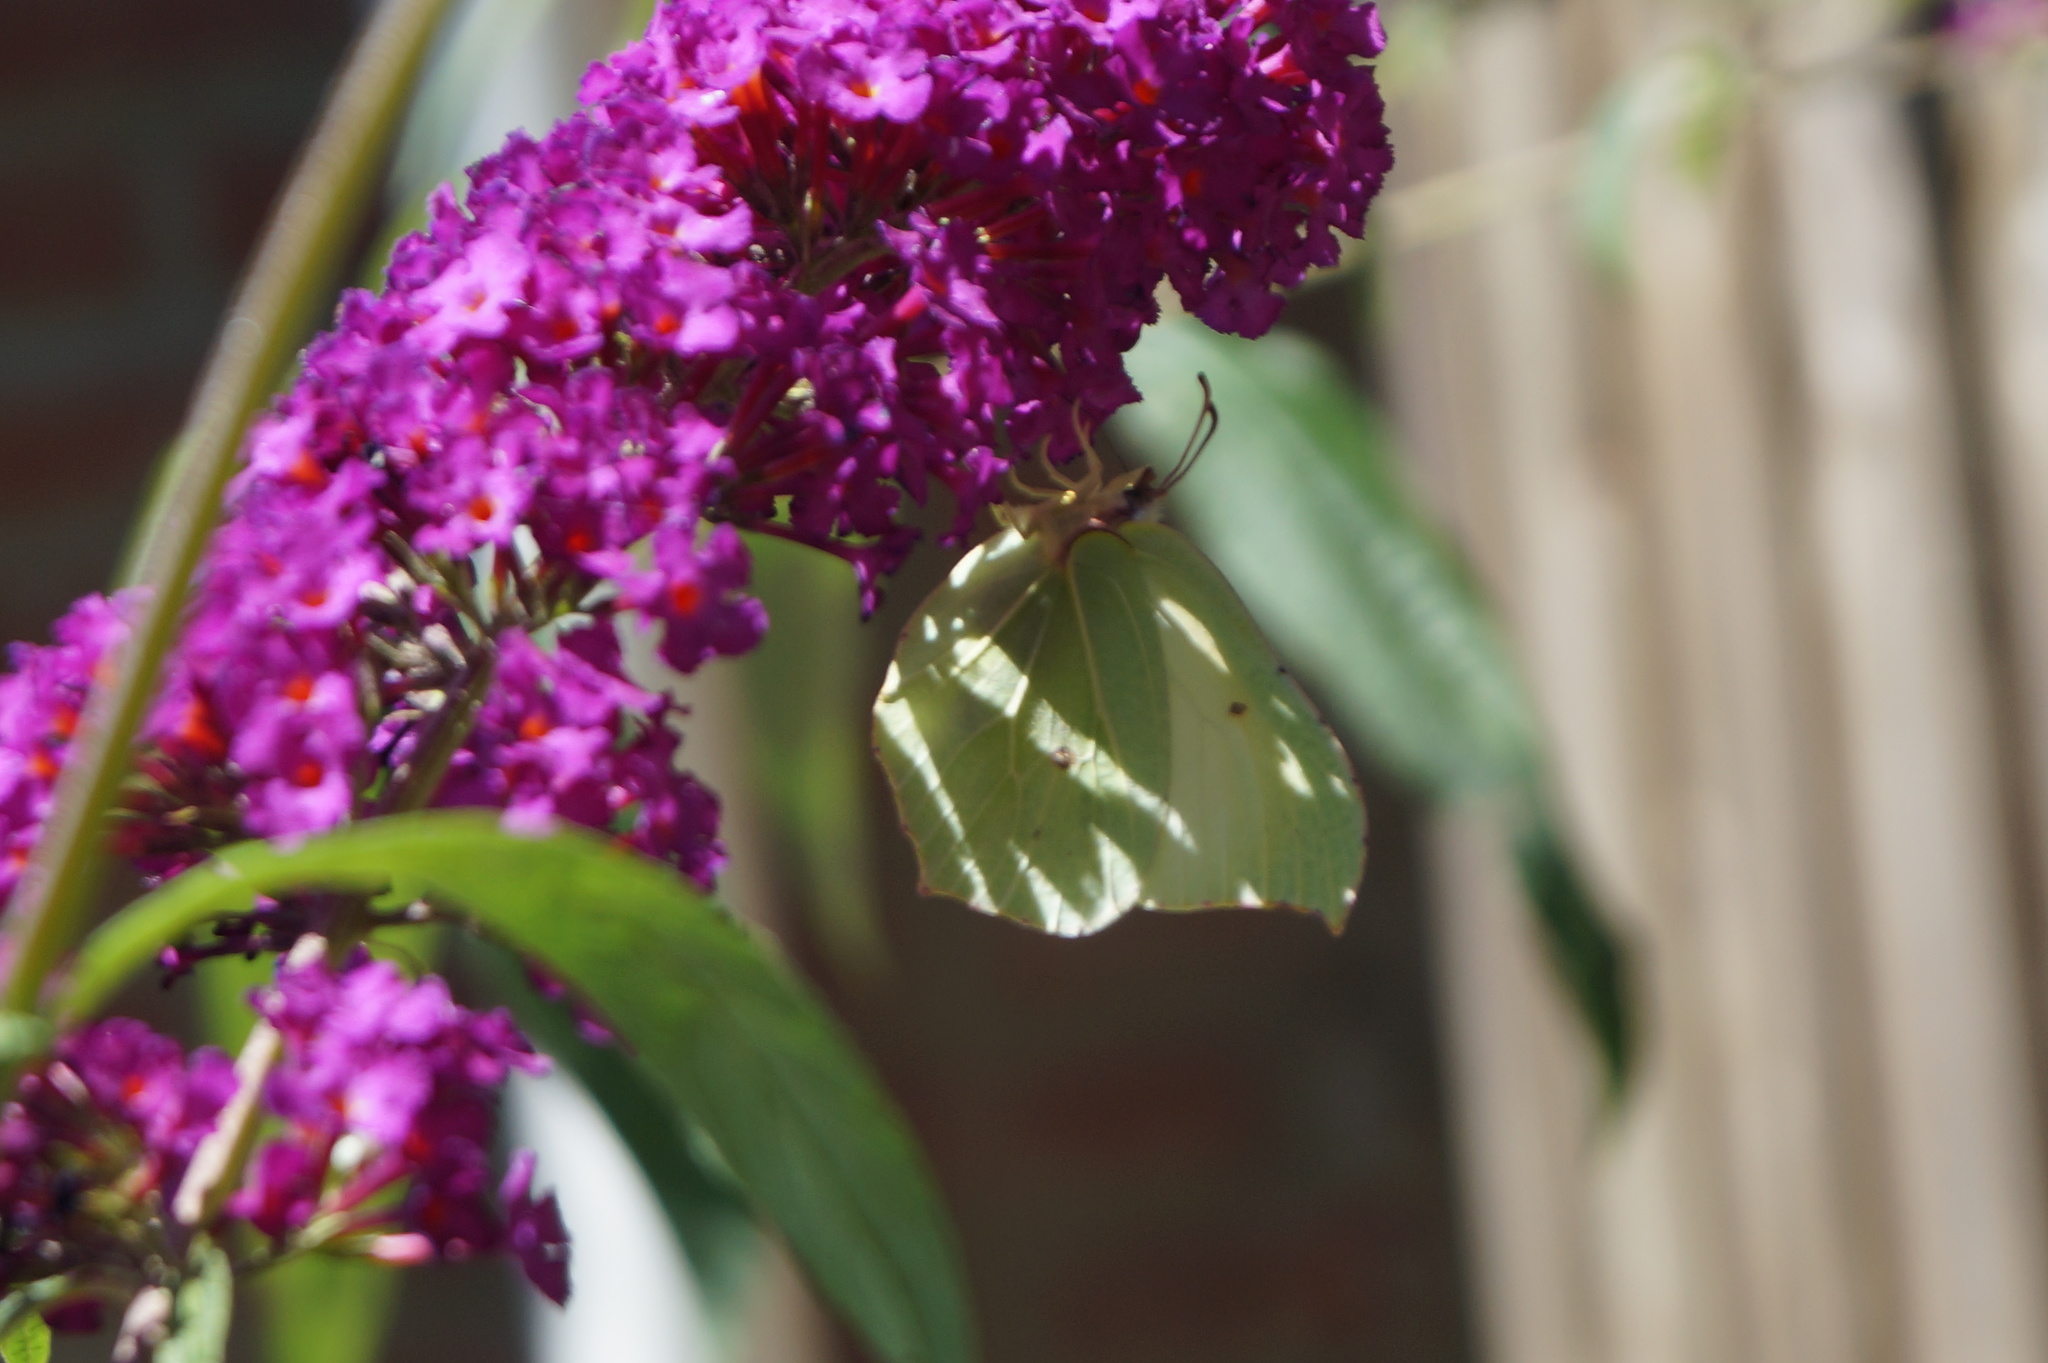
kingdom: Animalia
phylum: Arthropoda
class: Insecta
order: Lepidoptera
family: Pieridae
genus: Gonepteryx
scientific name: Gonepteryx rhamni
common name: Brimstone
